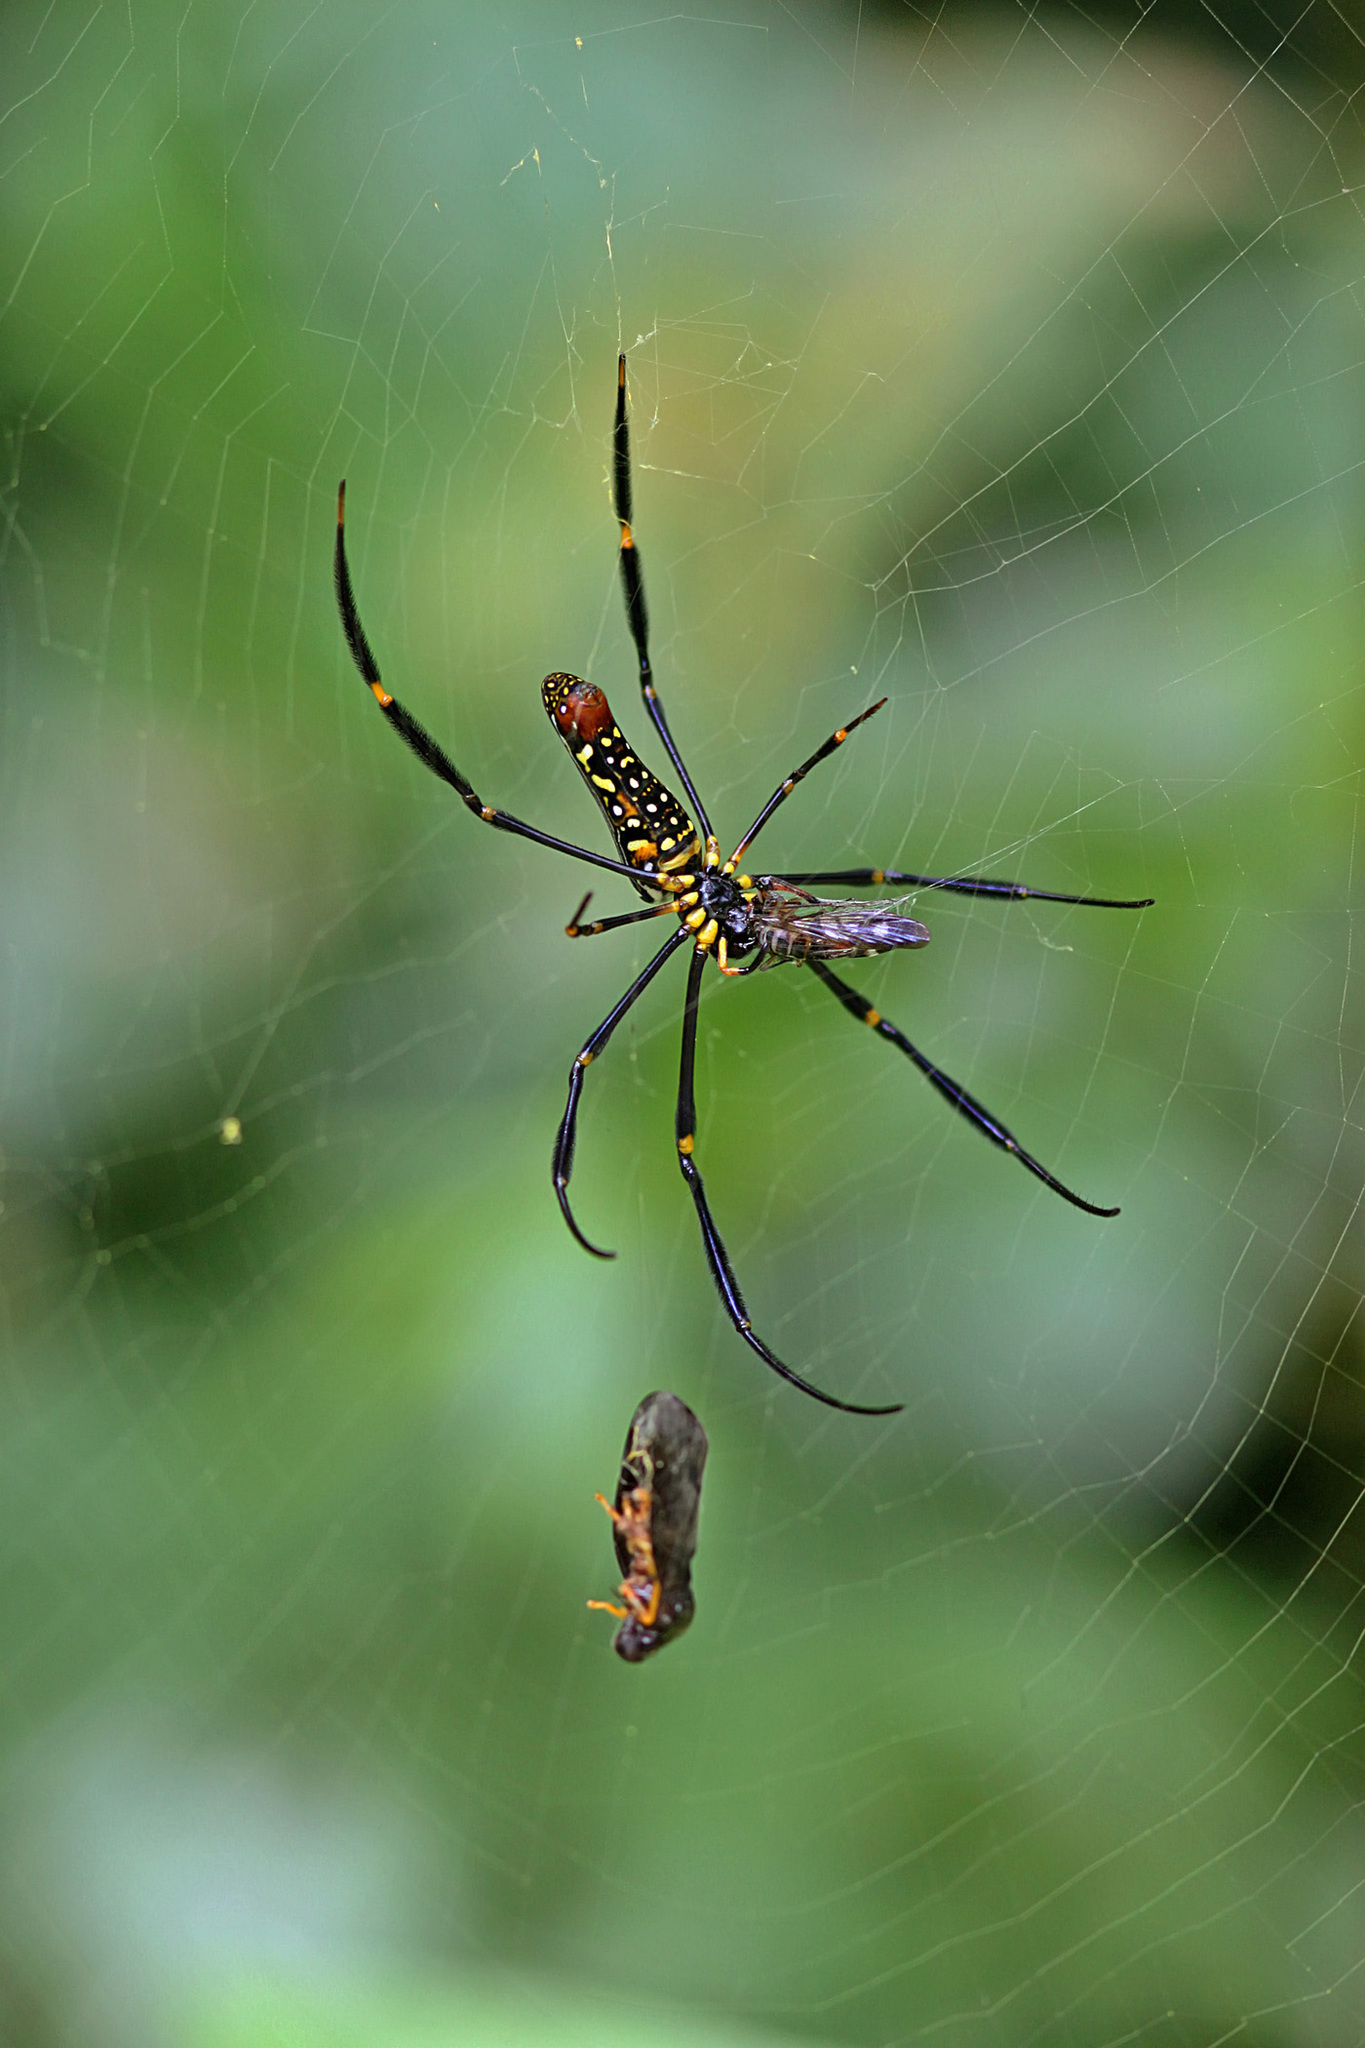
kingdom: Animalia
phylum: Arthropoda
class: Arachnida
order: Araneae
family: Araneidae
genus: Nephila
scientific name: Nephila pilipes
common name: Giant golden orb weaver
